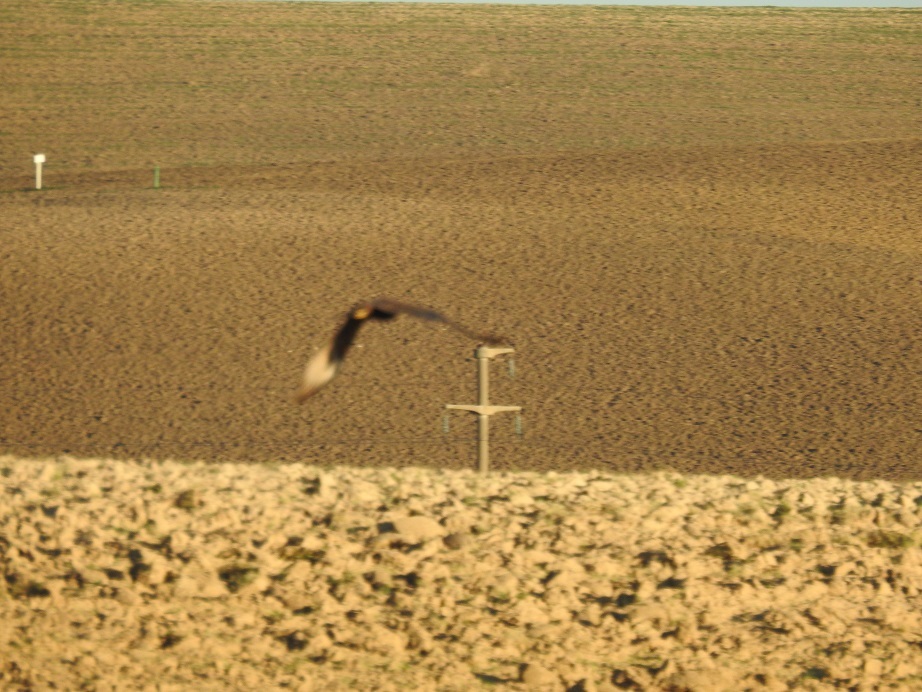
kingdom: Animalia
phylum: Chordata
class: Aves
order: Accipitriformes
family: Accipitridae
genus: Circus
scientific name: Circus aeruginosus
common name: Western marsh harrier
